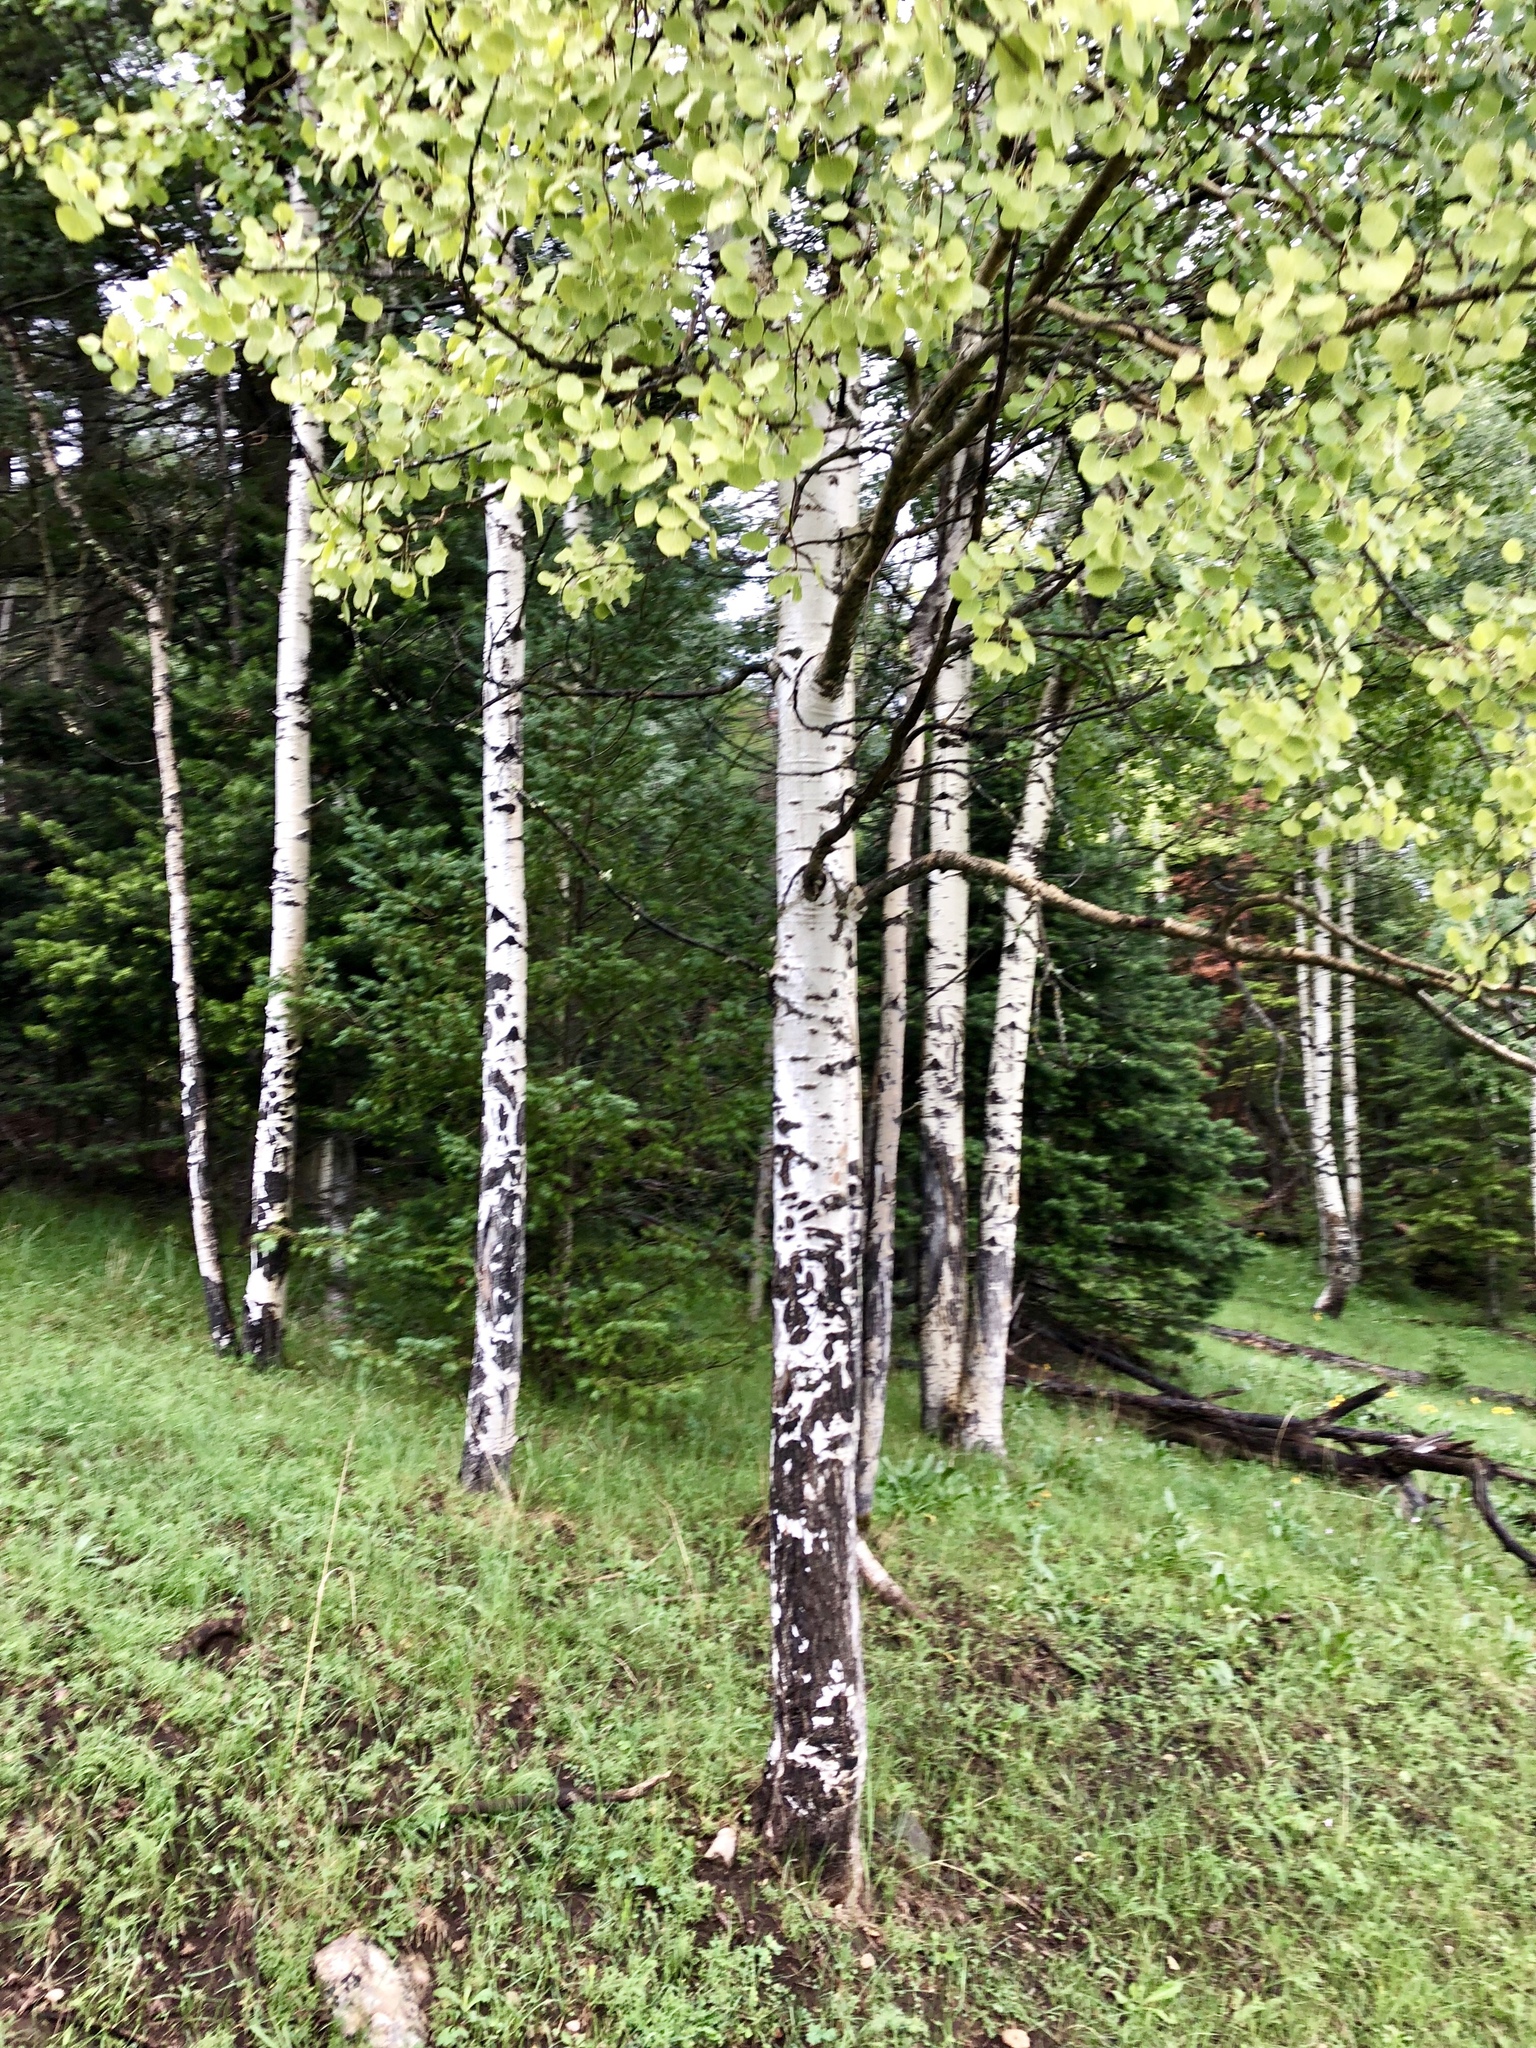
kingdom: Plantae
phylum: Tracheophyta
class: Magnoliopsida
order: Malpighiales
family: Salicaceae
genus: Populus
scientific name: Populus tremuloides
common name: Quaking aspen
